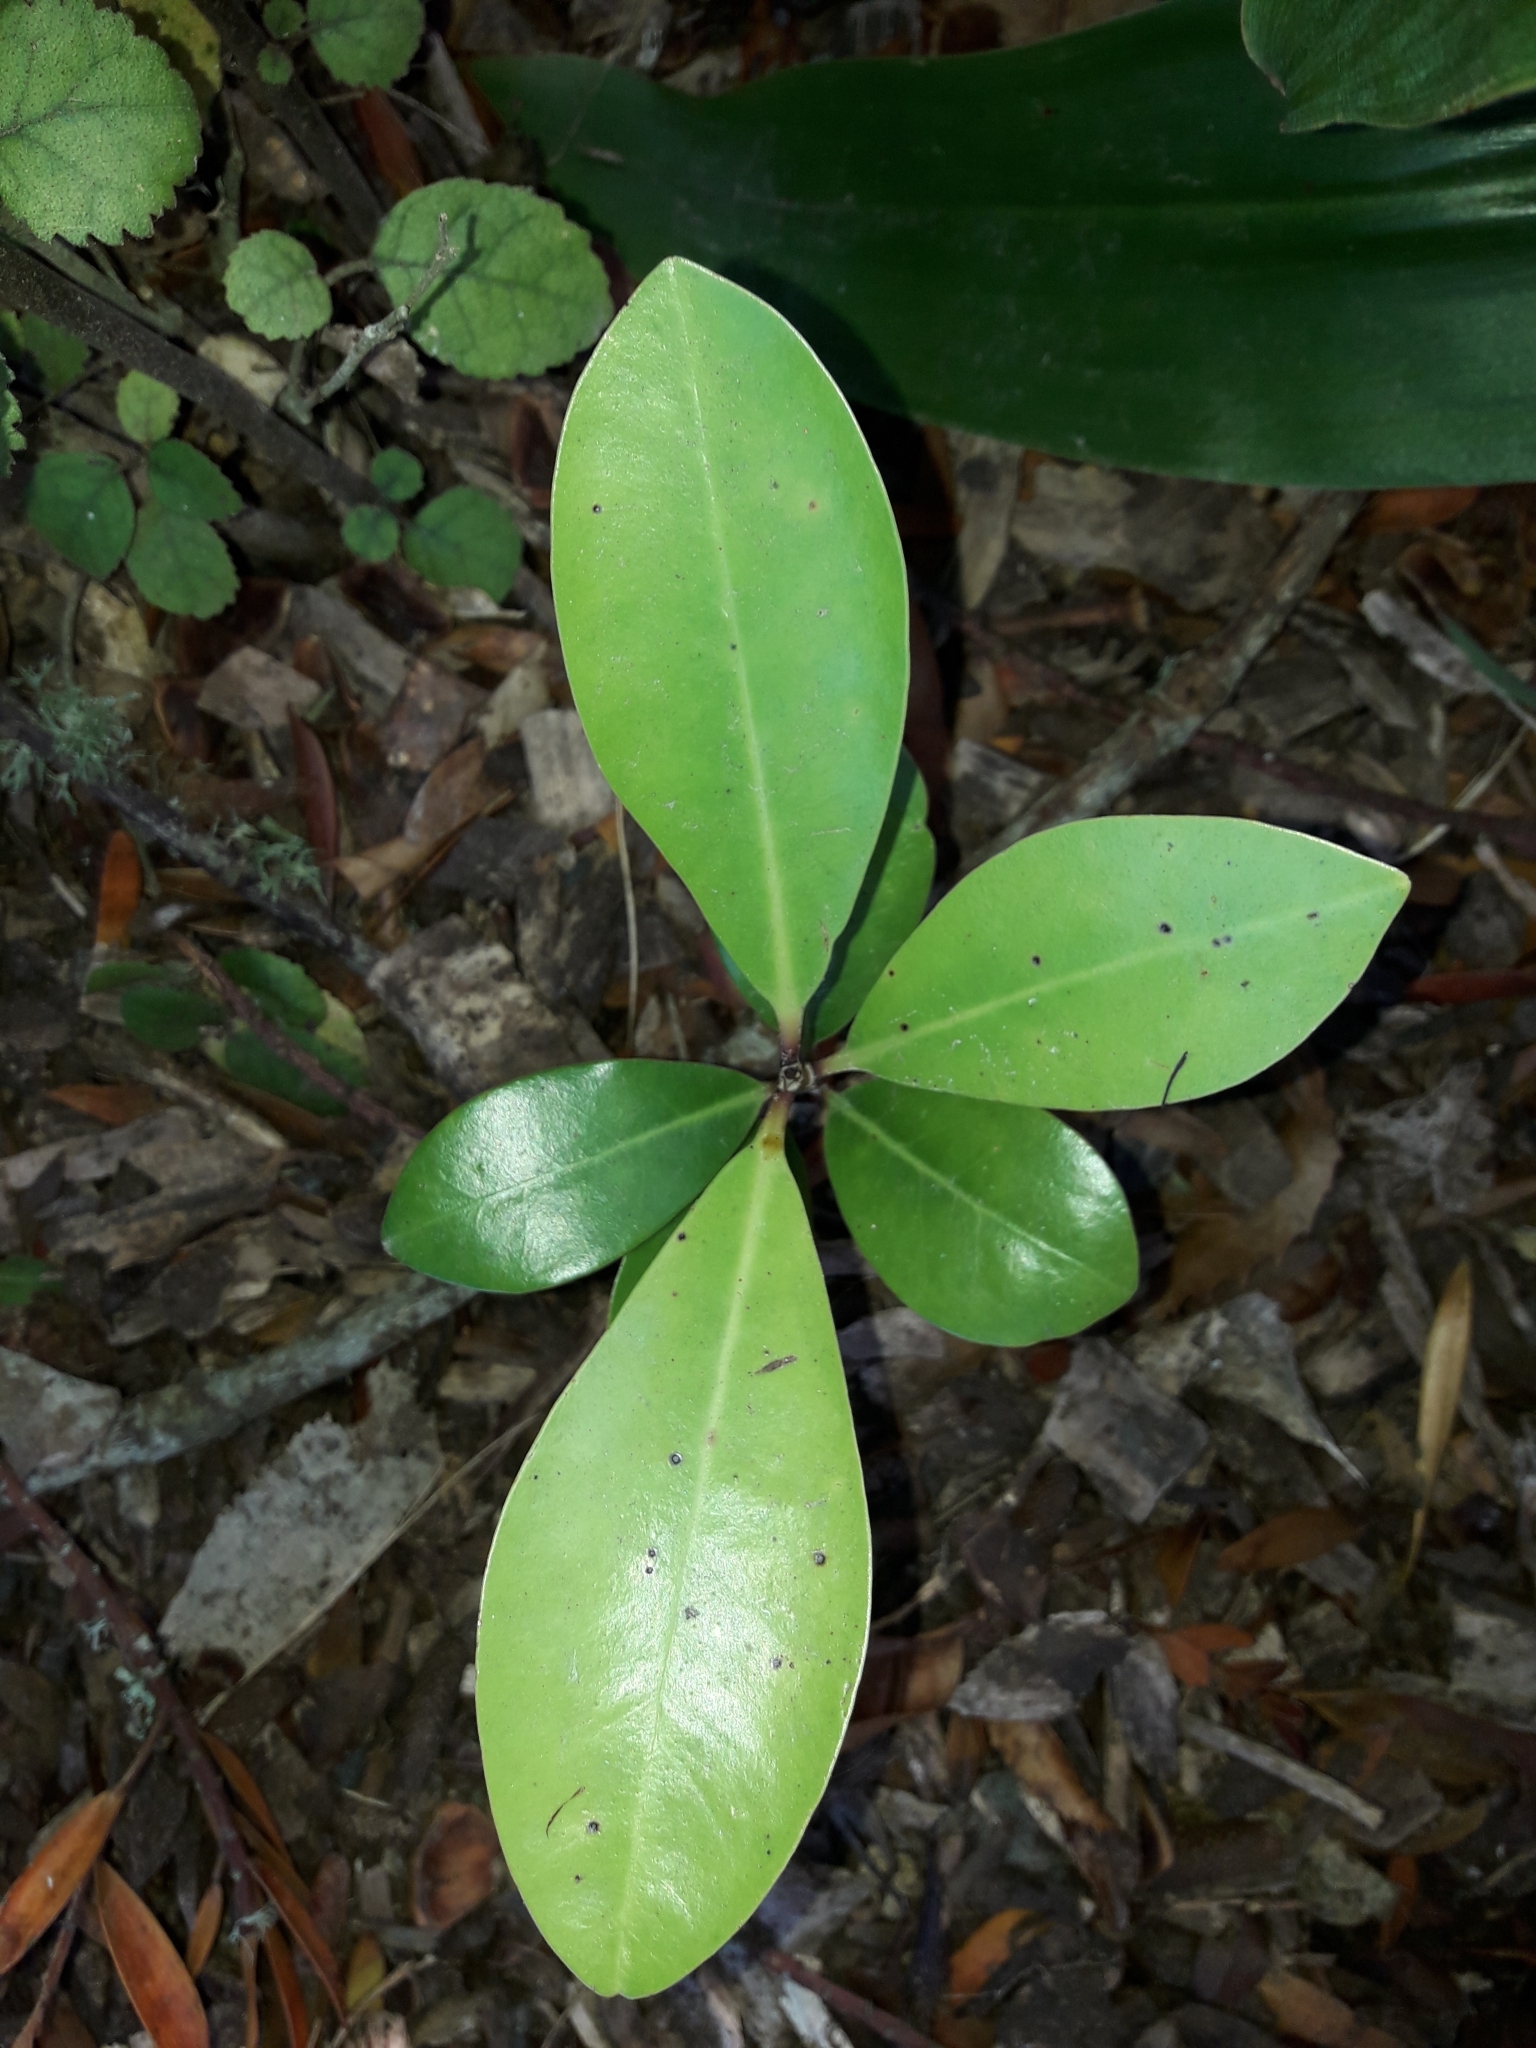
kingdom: Plantae
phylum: Tracheophyta
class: Magnoliopsida
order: Cucurbitales
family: Corynocarpaceae
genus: Corynocarpus
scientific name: Corynocarpus laevigatus
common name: New zealand laurel
